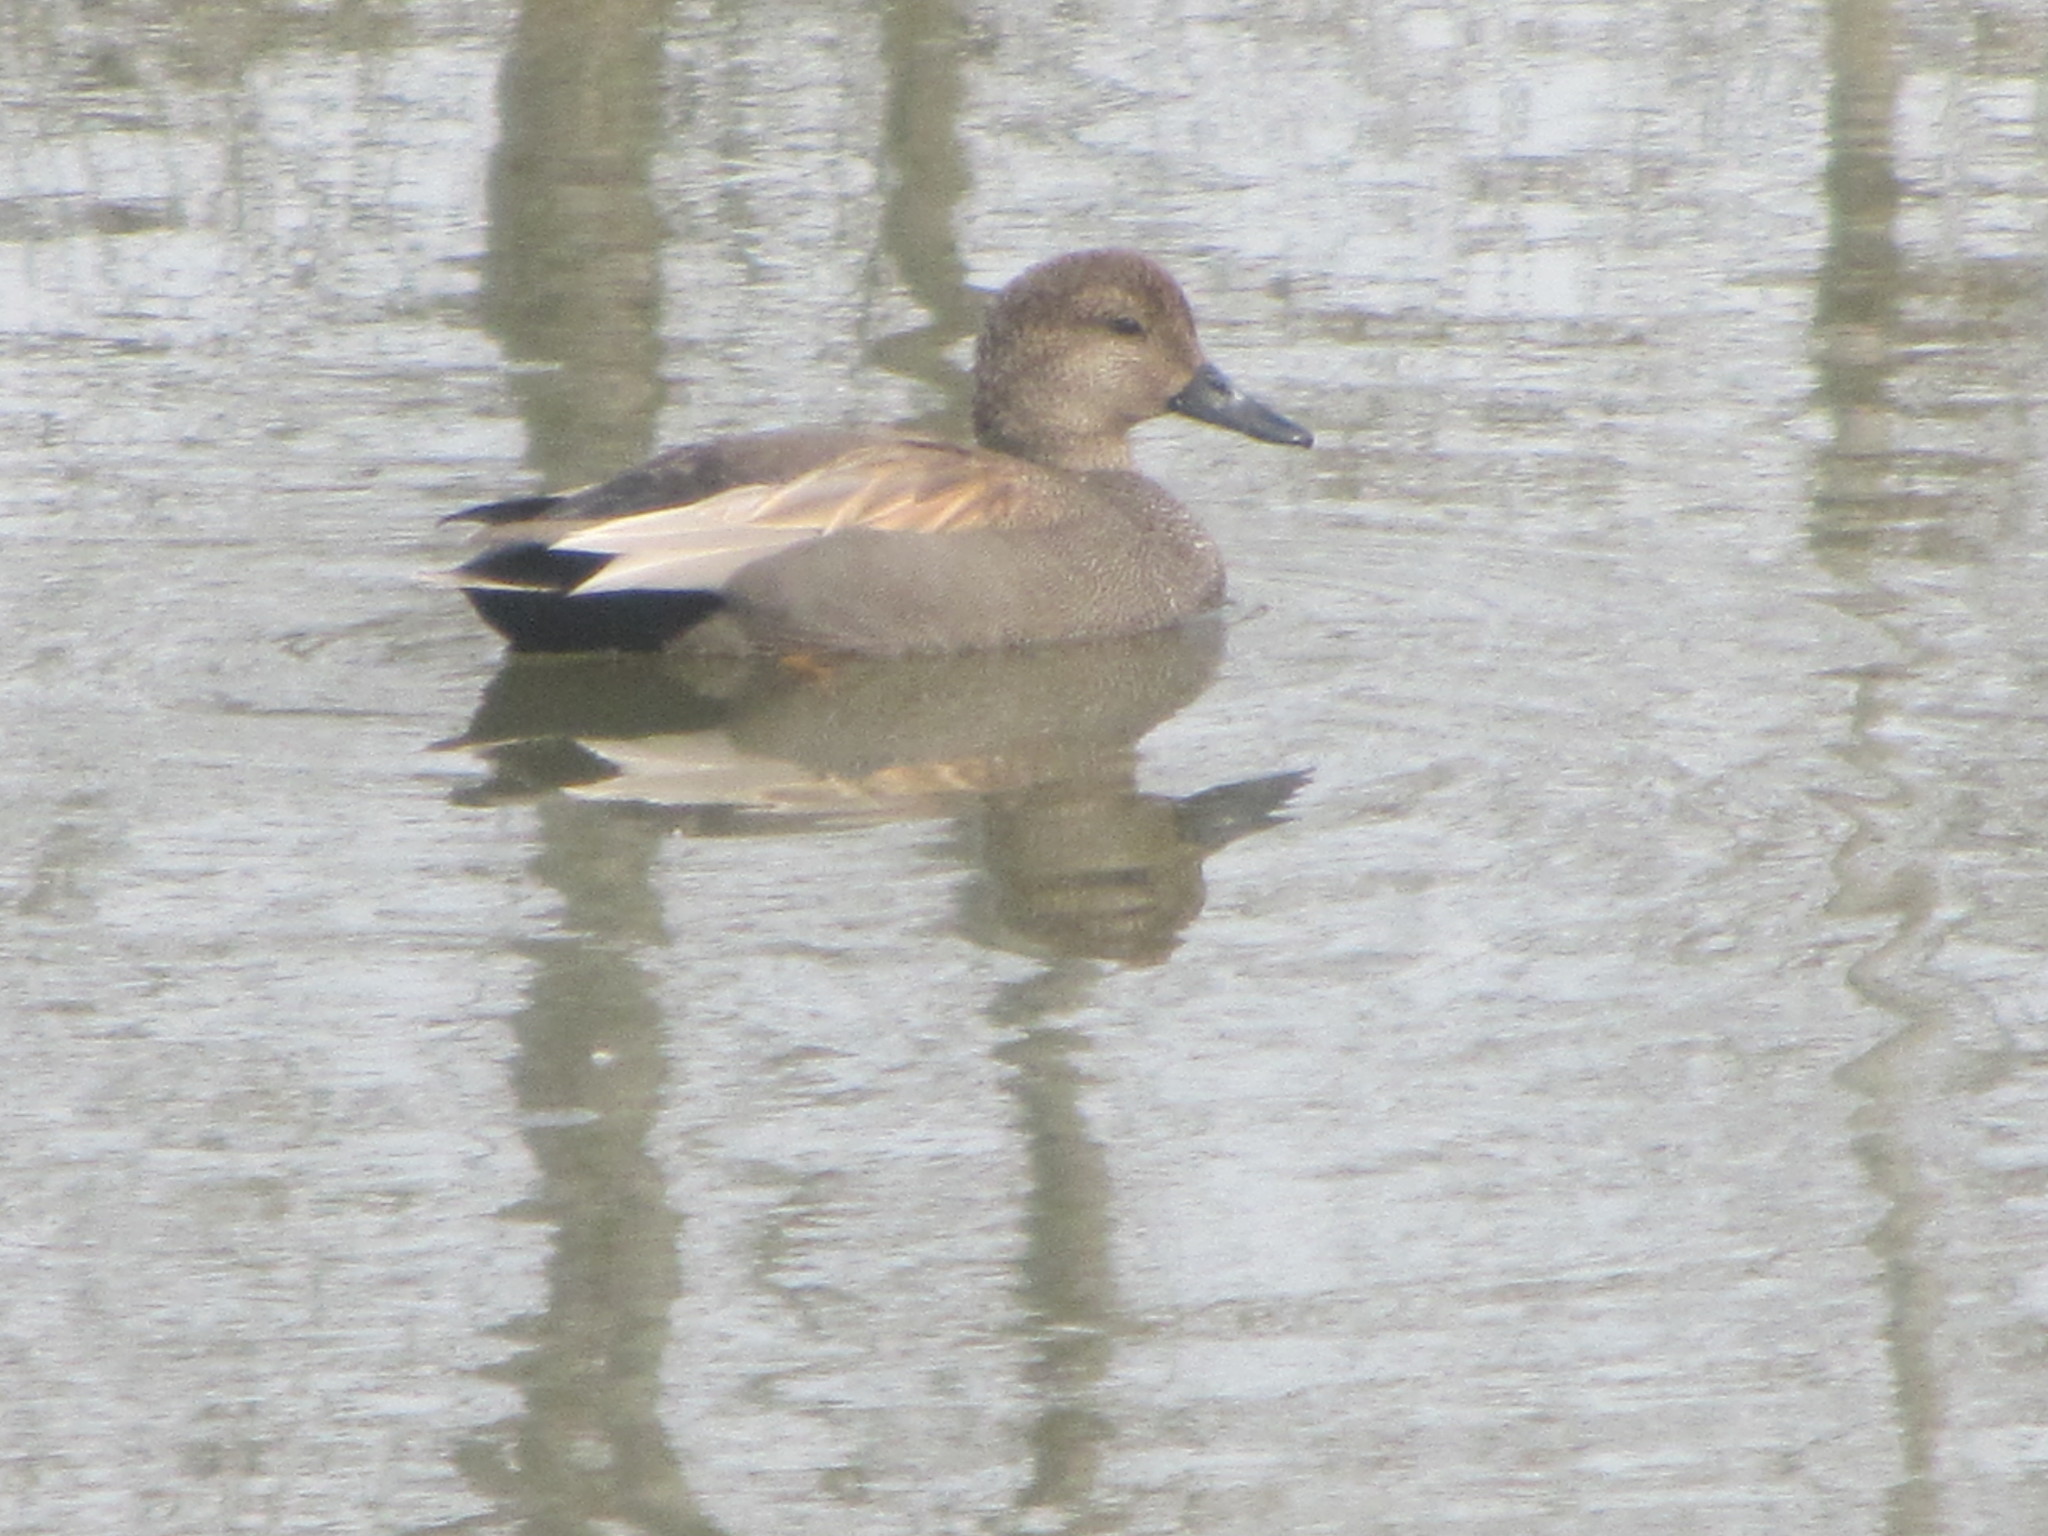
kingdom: Animalia
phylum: Chordata
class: Aves
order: Anseriformes
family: Anatidae
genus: Mareca
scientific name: Mareca strepera
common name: Gadwall
